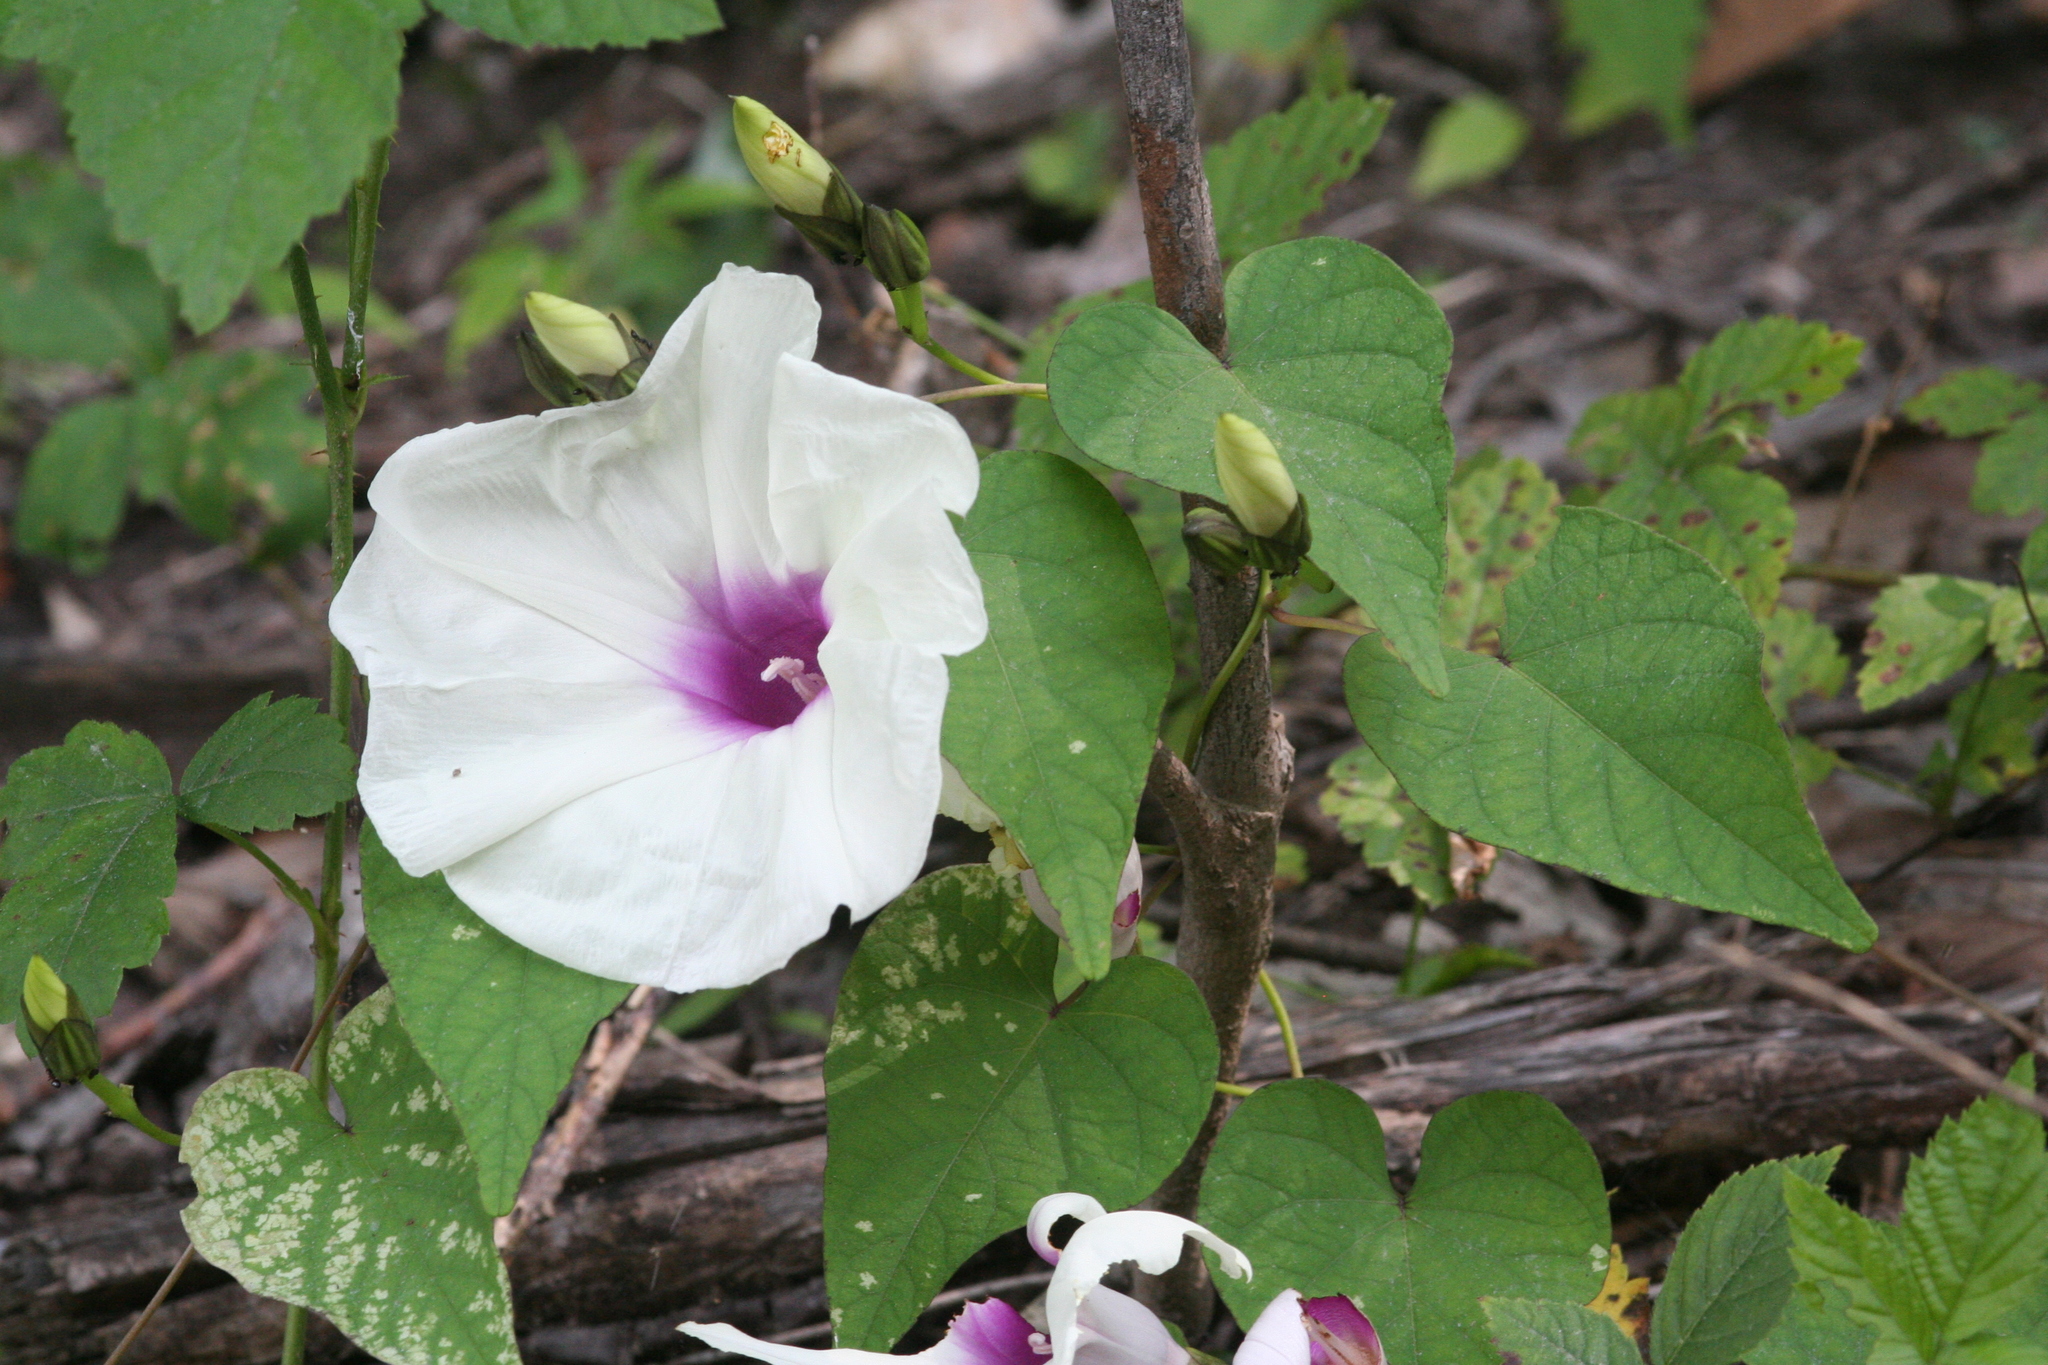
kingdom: Plantae
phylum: Tracheophyta
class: Magnoliopsida
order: Solanales
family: Convolvulaceae
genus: Ipomoea
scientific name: Ipomoea pandurata
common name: Man-of-the-earth
